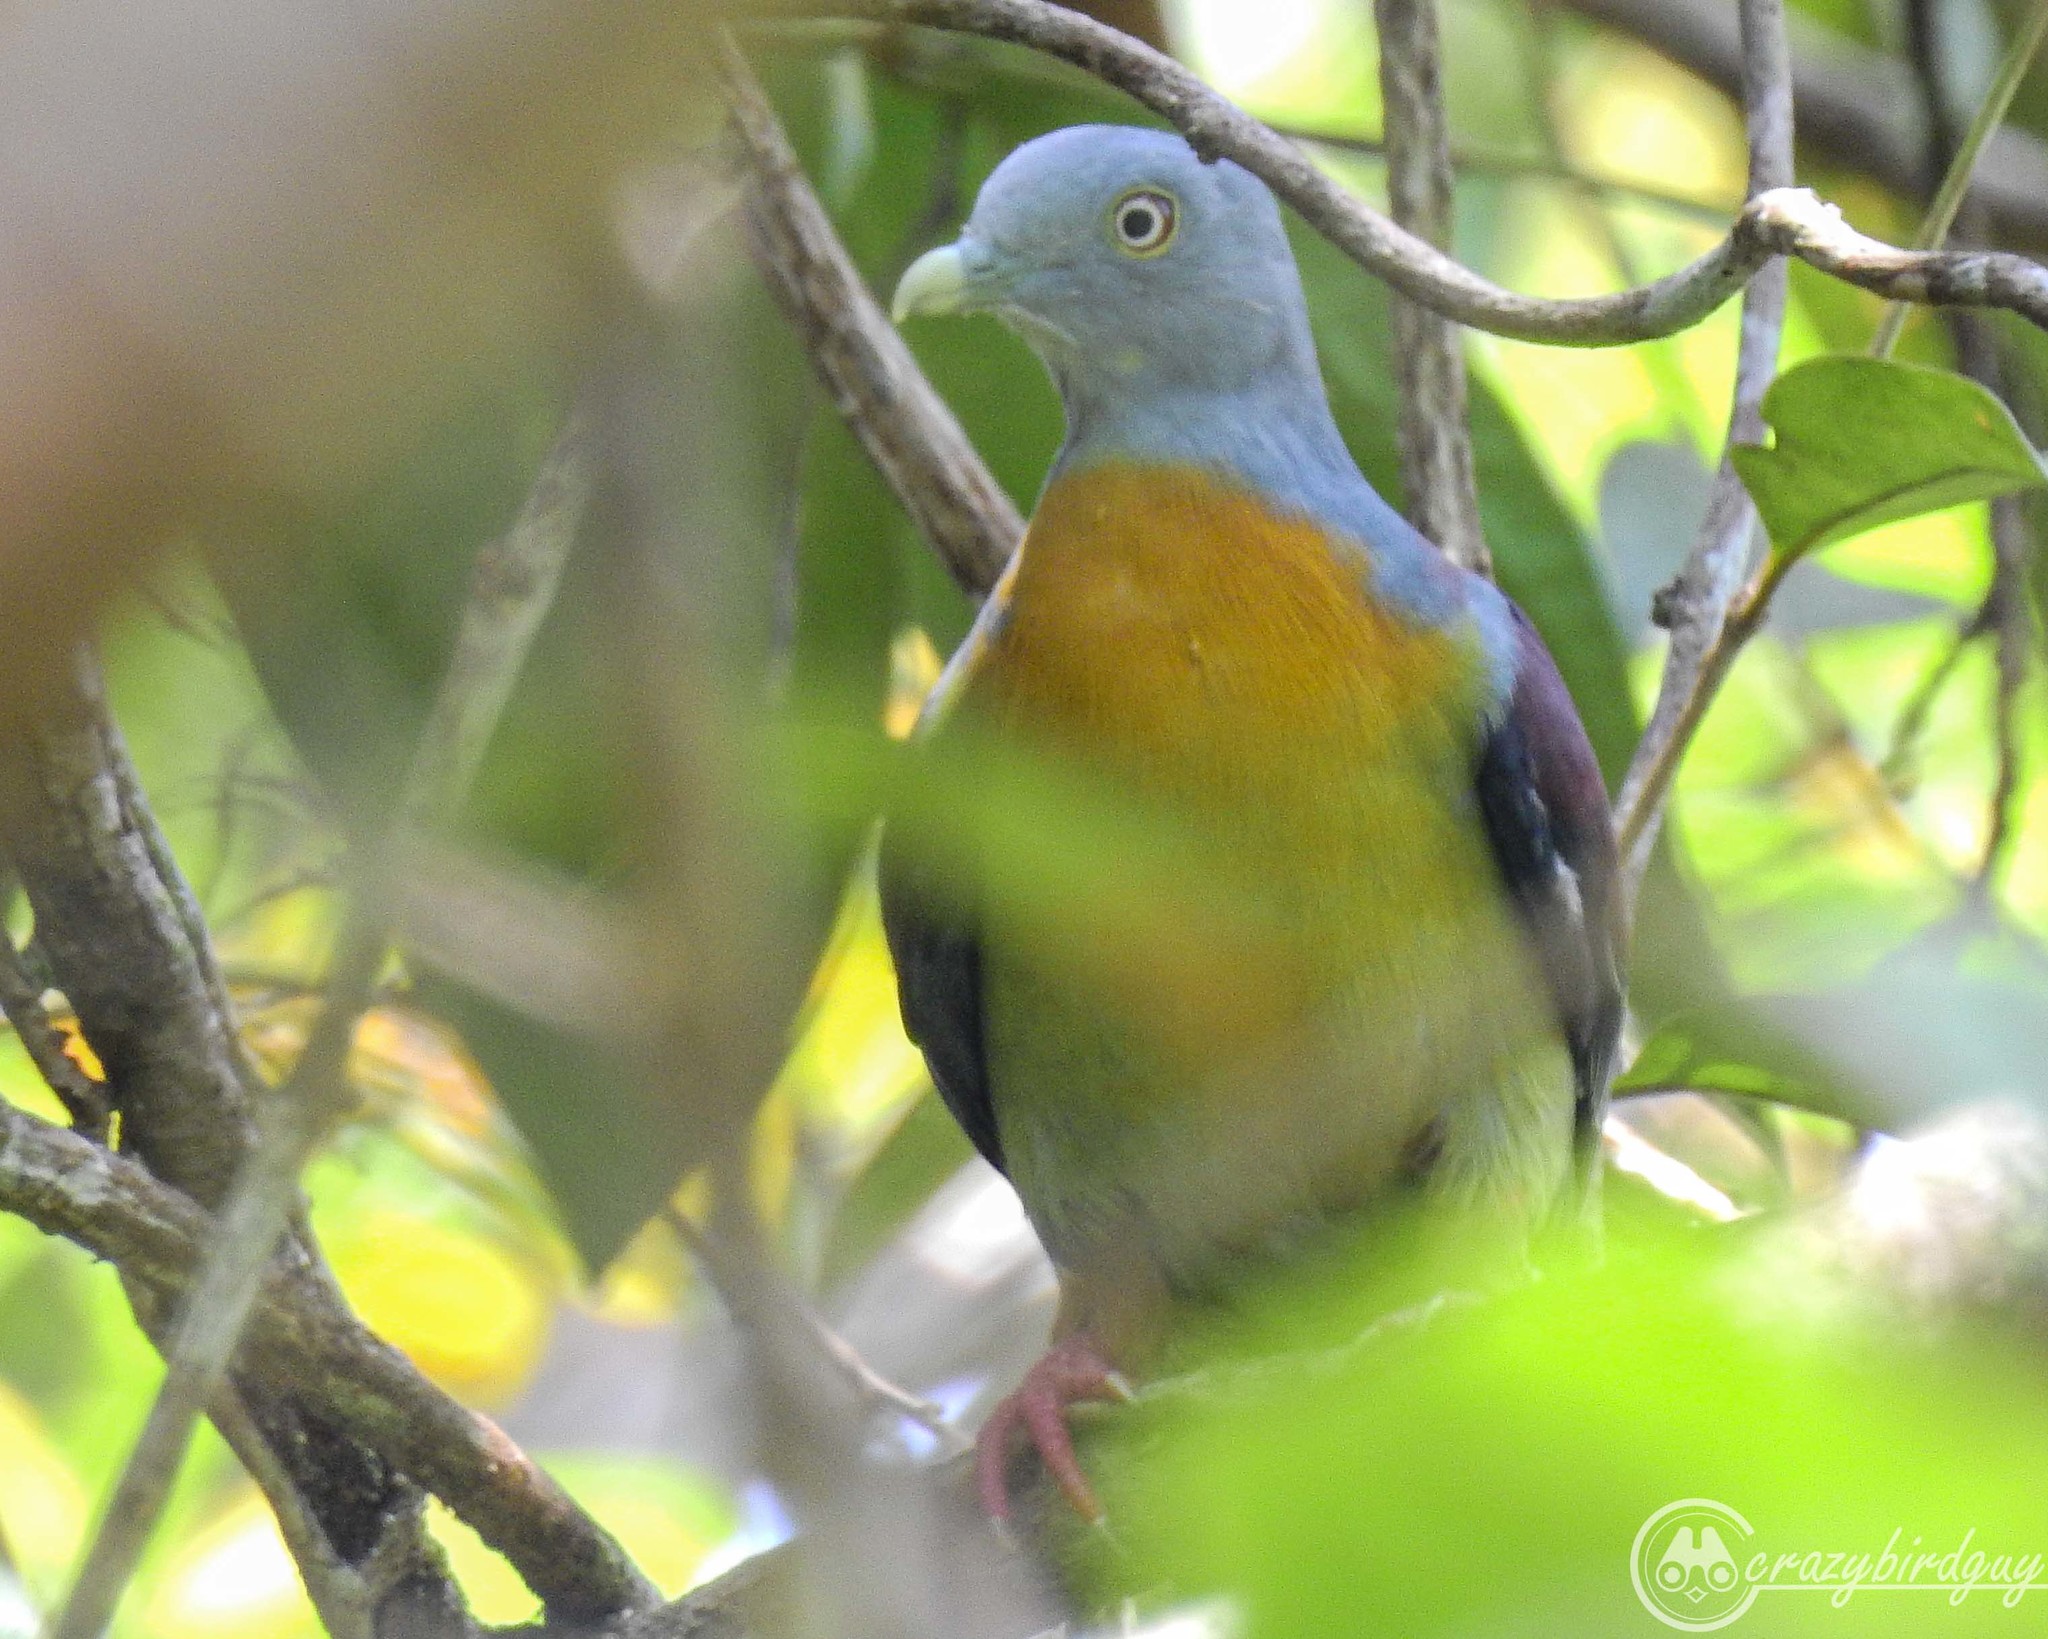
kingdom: Animalia
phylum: Chordata
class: Aves
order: Columbiformes
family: Columbidae
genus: Treron
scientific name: Treron olax
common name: Little green pigeon
